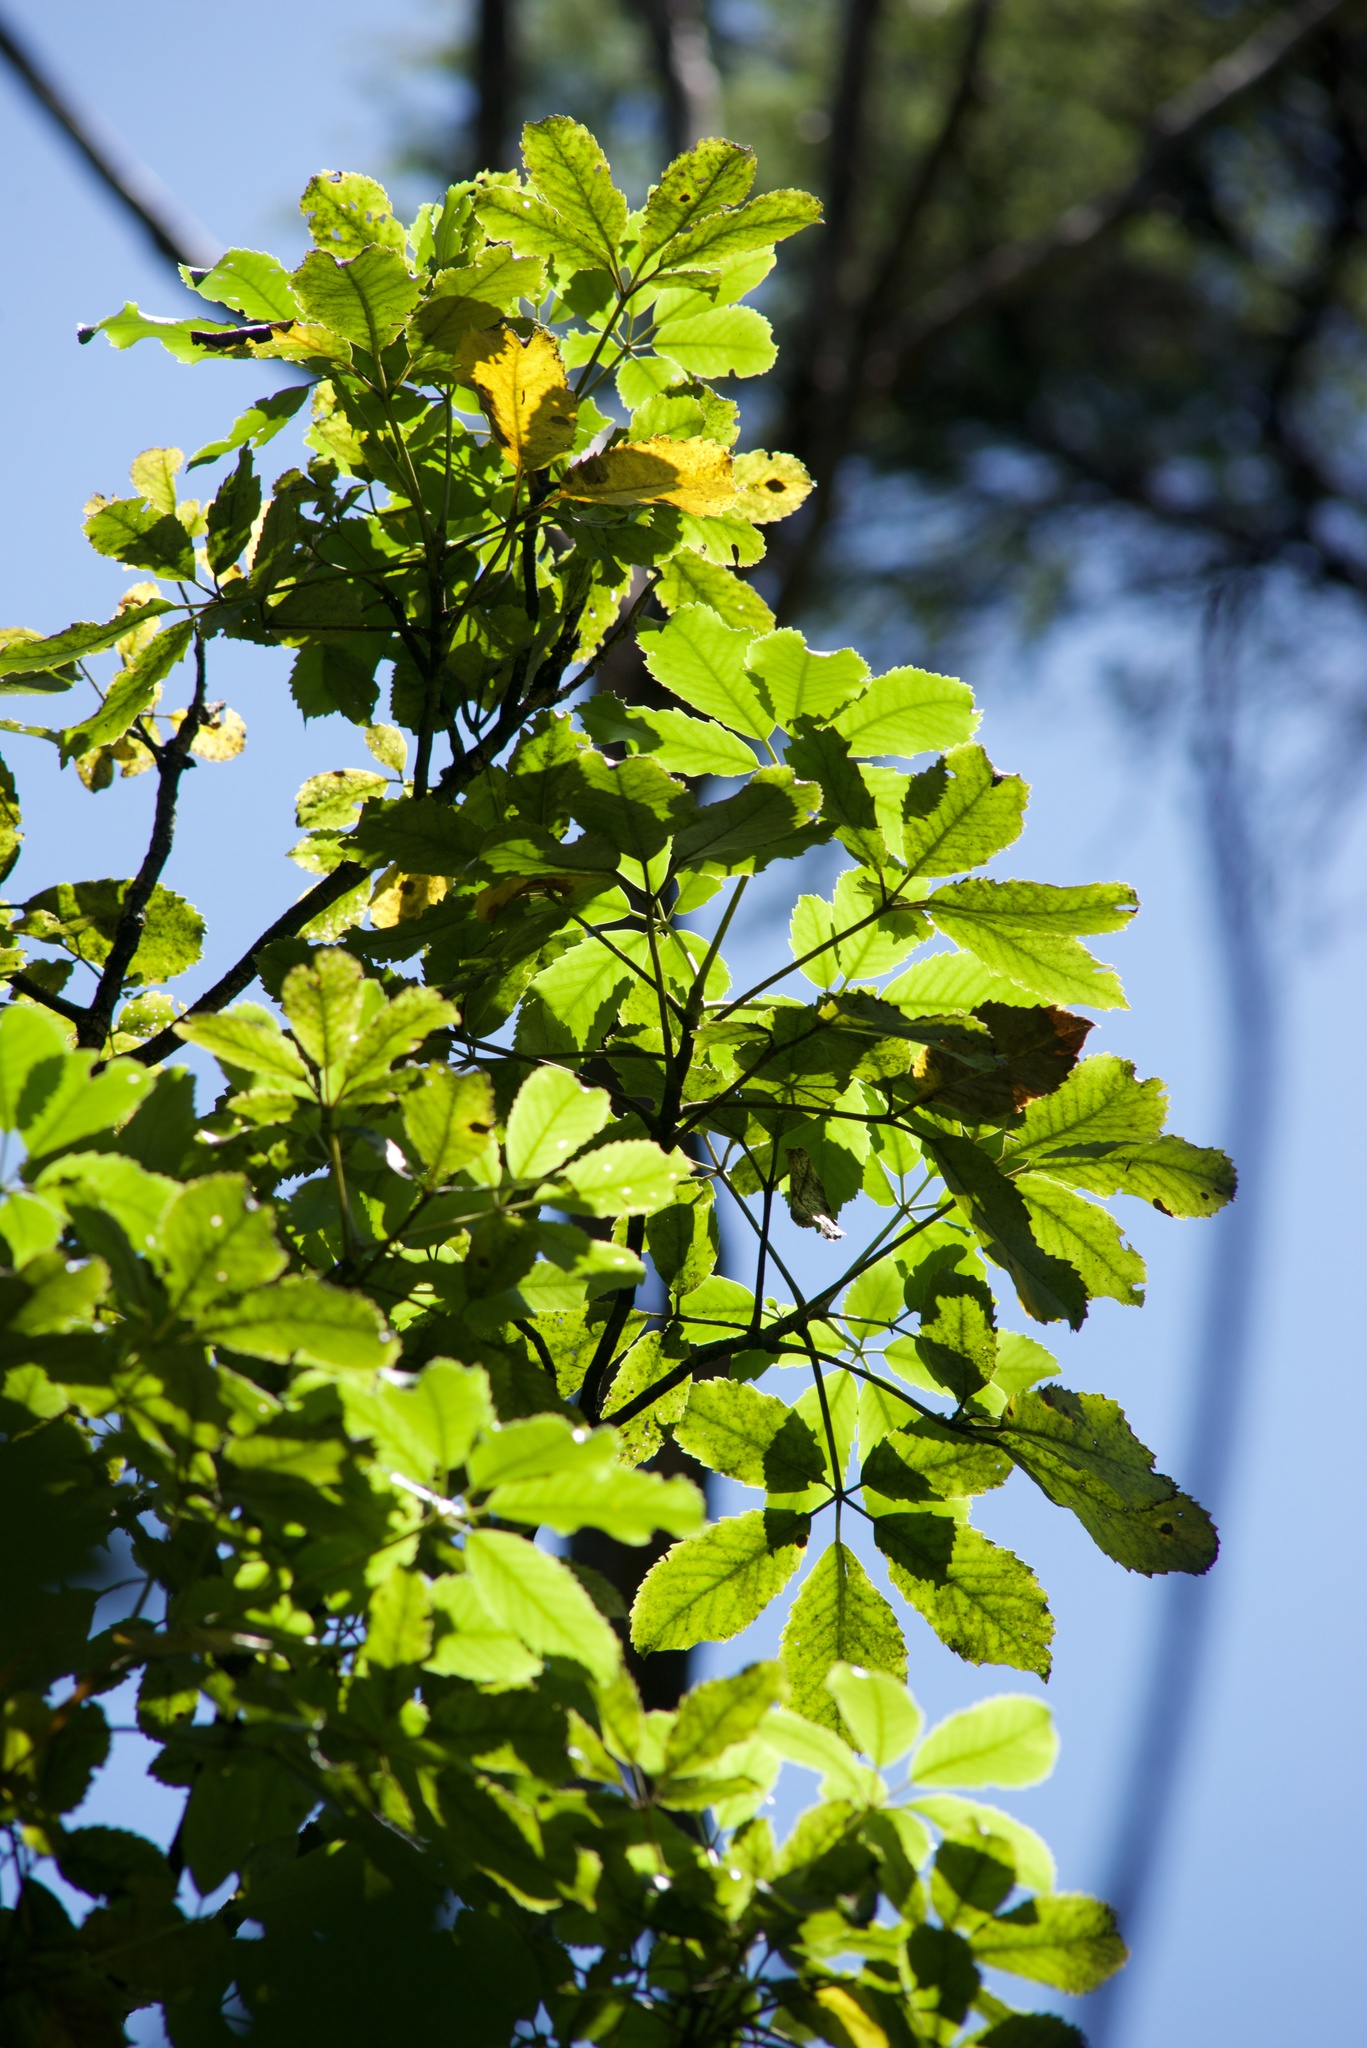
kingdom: Plantae
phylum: Tracheophyta
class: Magnoliopsida
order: Apiales
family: Araliaceae
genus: Neopanax
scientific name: Neopanax arboreus
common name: Five-fingers
